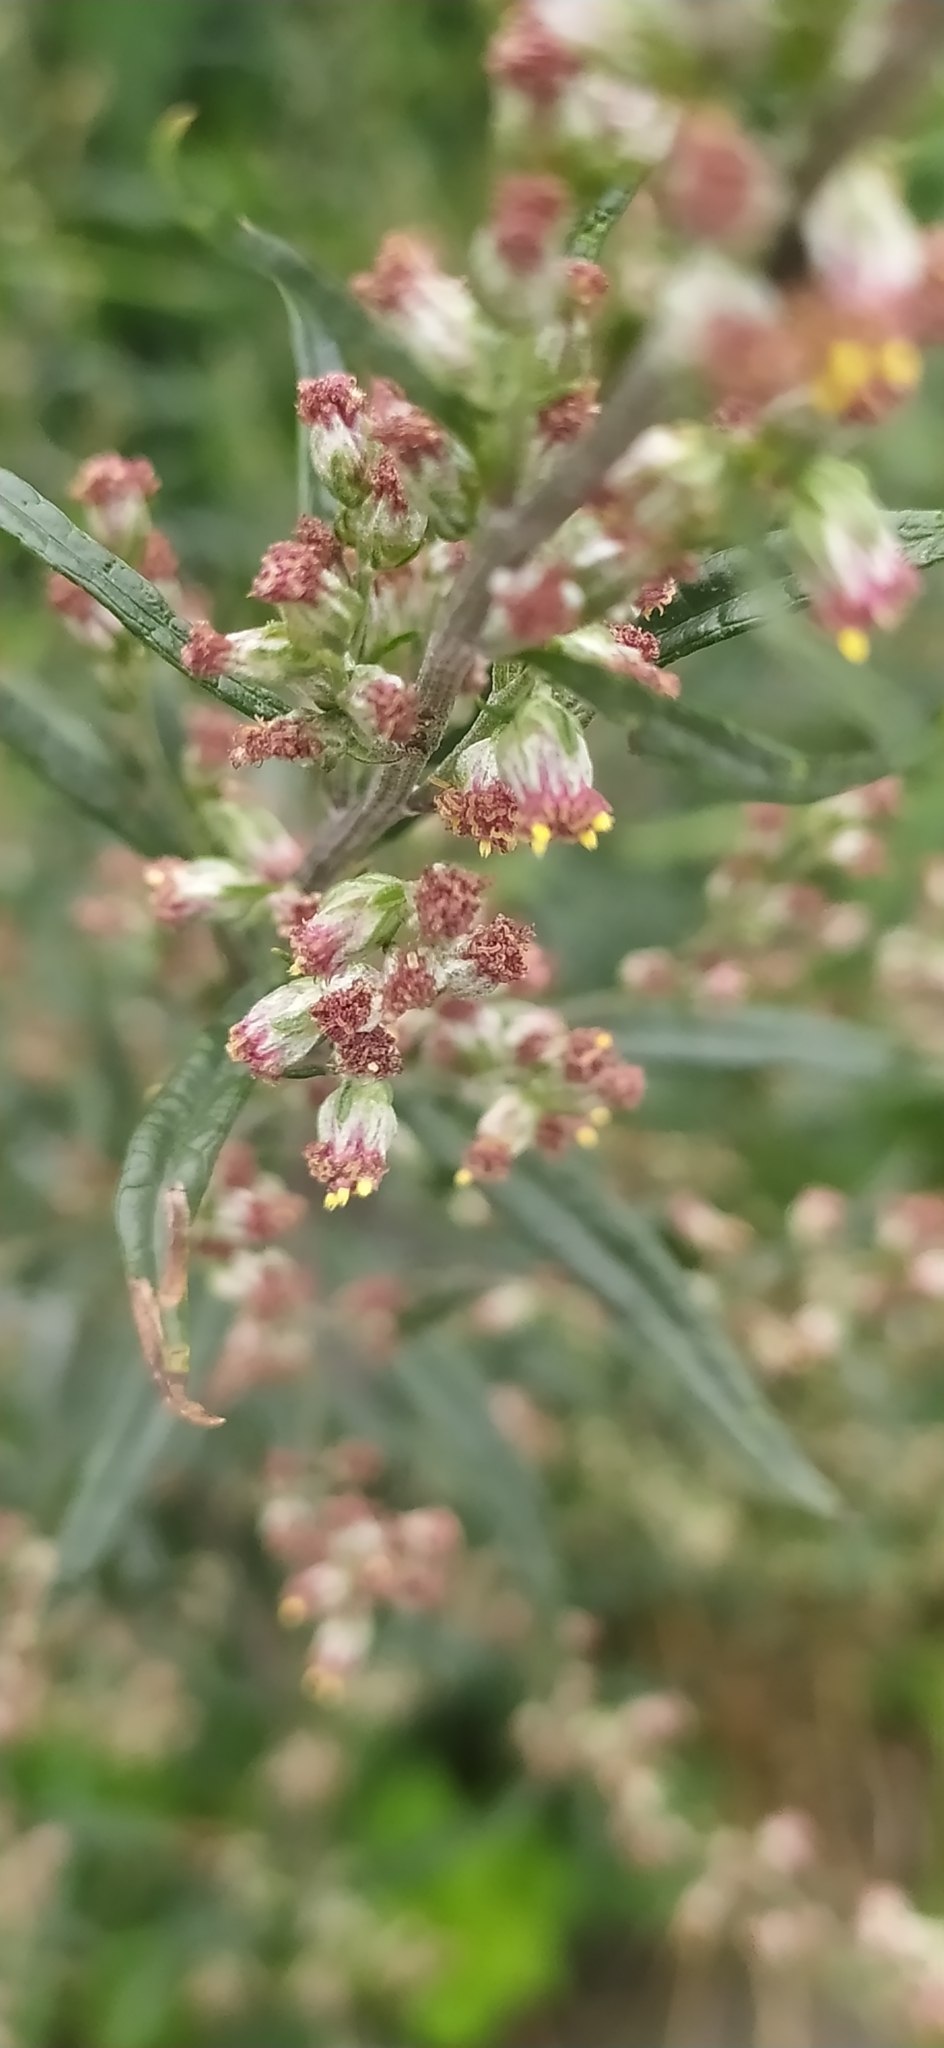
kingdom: Plantae
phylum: Tracheophyta
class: Magnoliopsida
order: Asterales
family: Asteraceae
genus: Artemisia
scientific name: Artemisia vulgaris
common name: Mugwort
